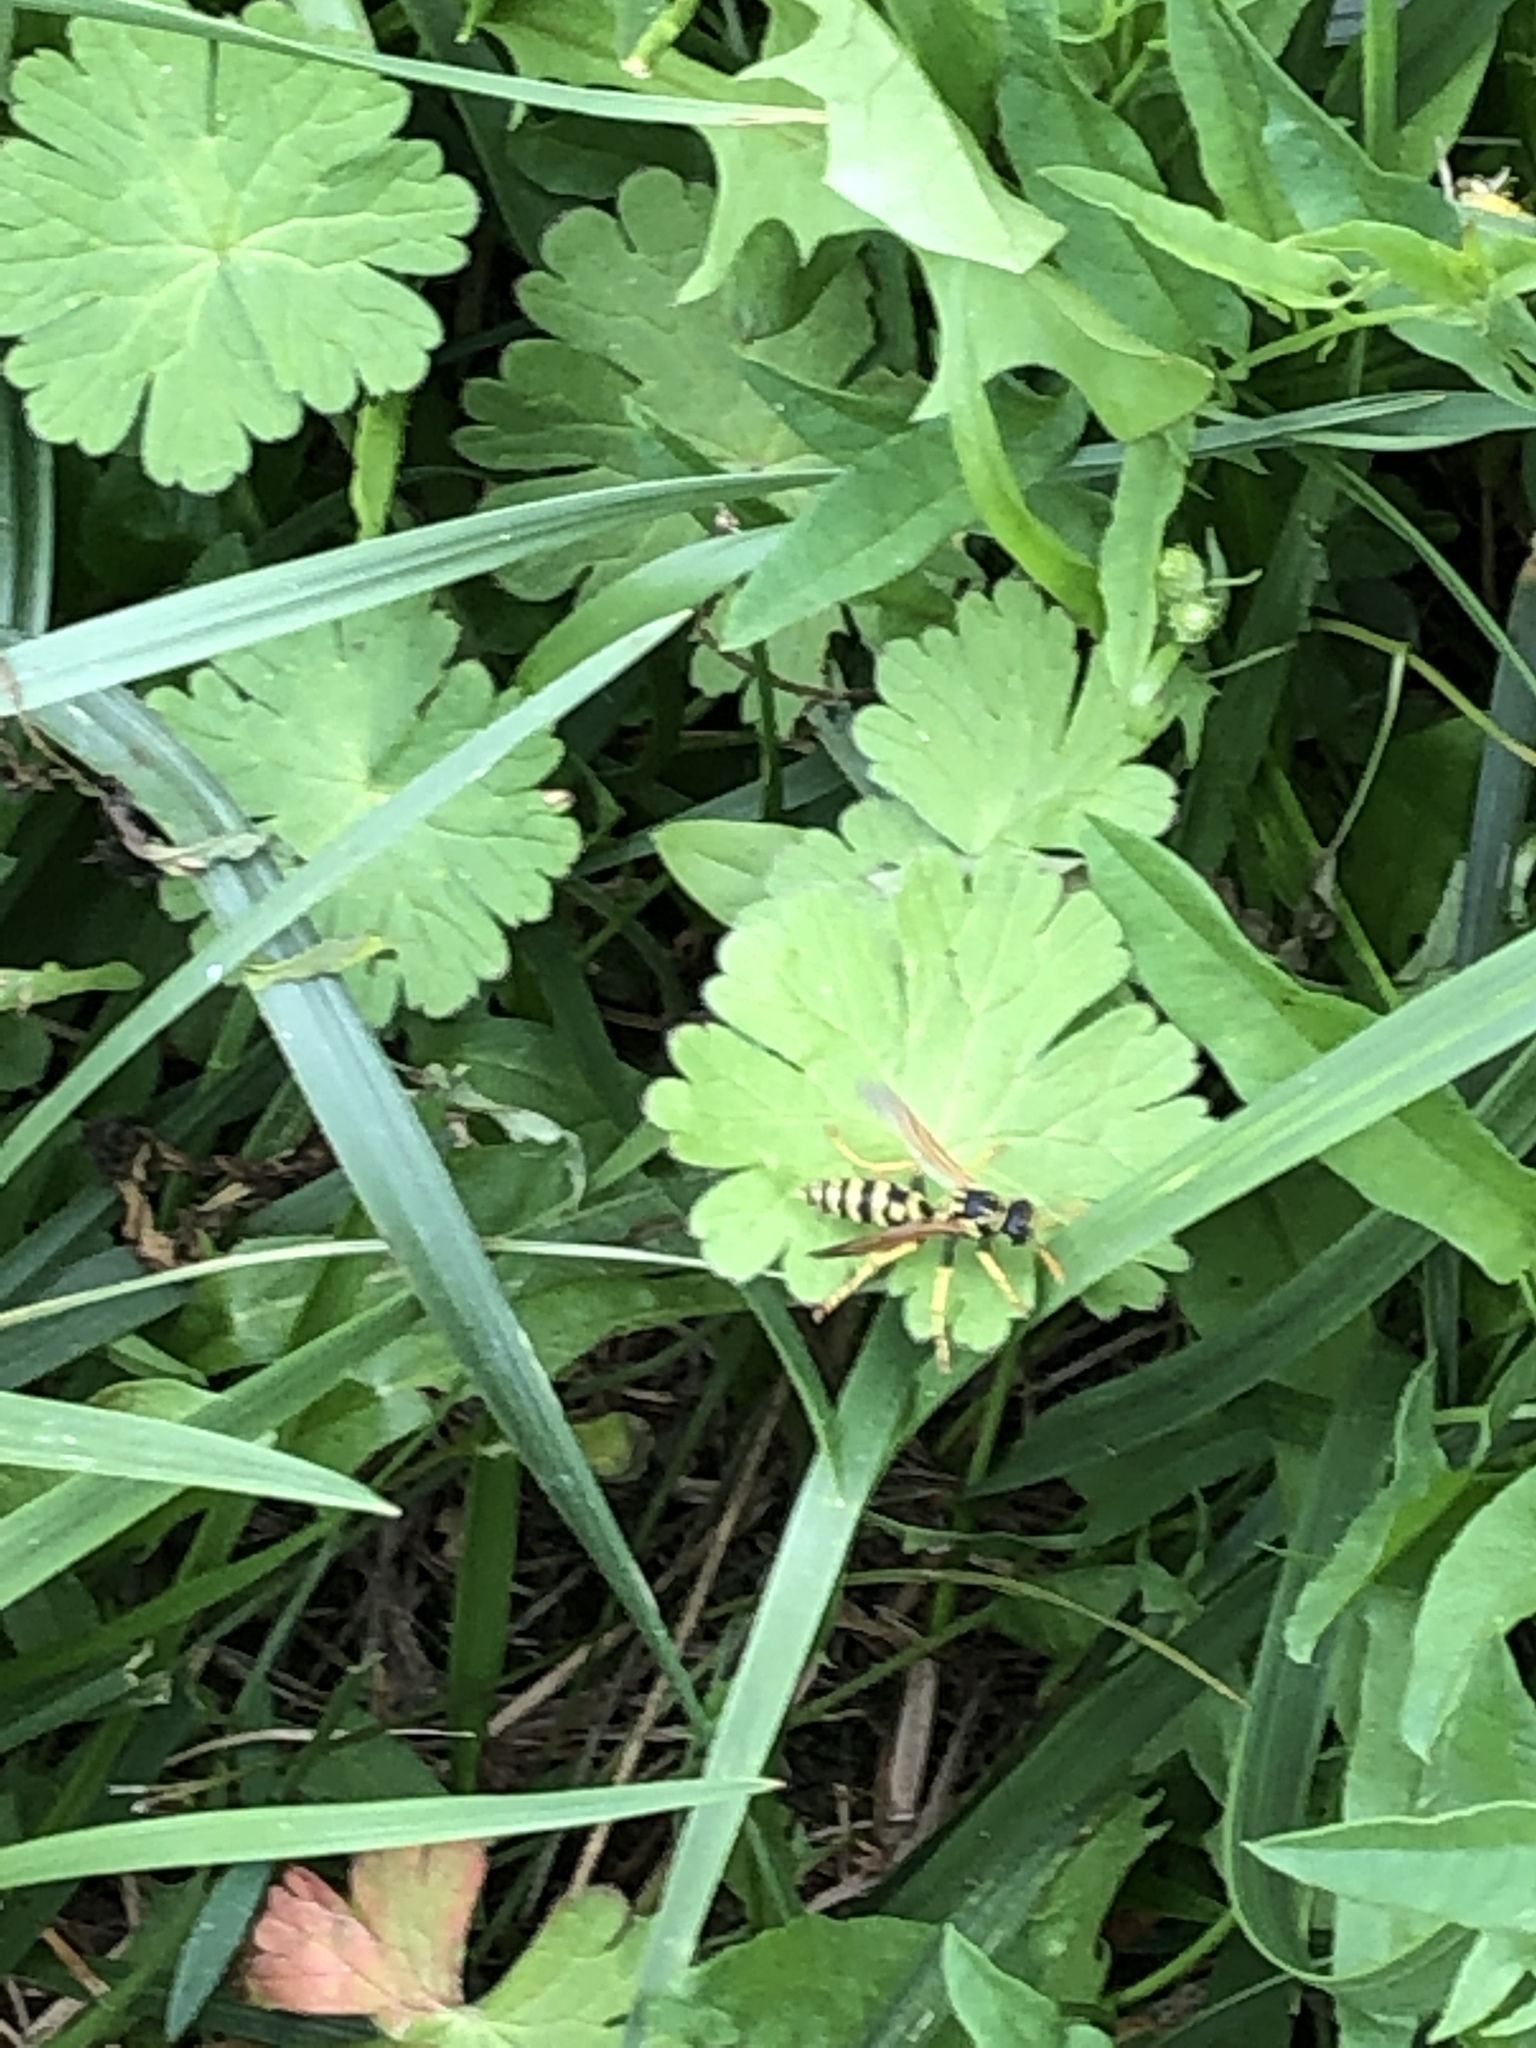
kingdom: Animalia
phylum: Arthropoda
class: Insecta
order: Hymenoptera
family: Eumenidae
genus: Polistes
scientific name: Polistes dominula
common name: Paper wasp
